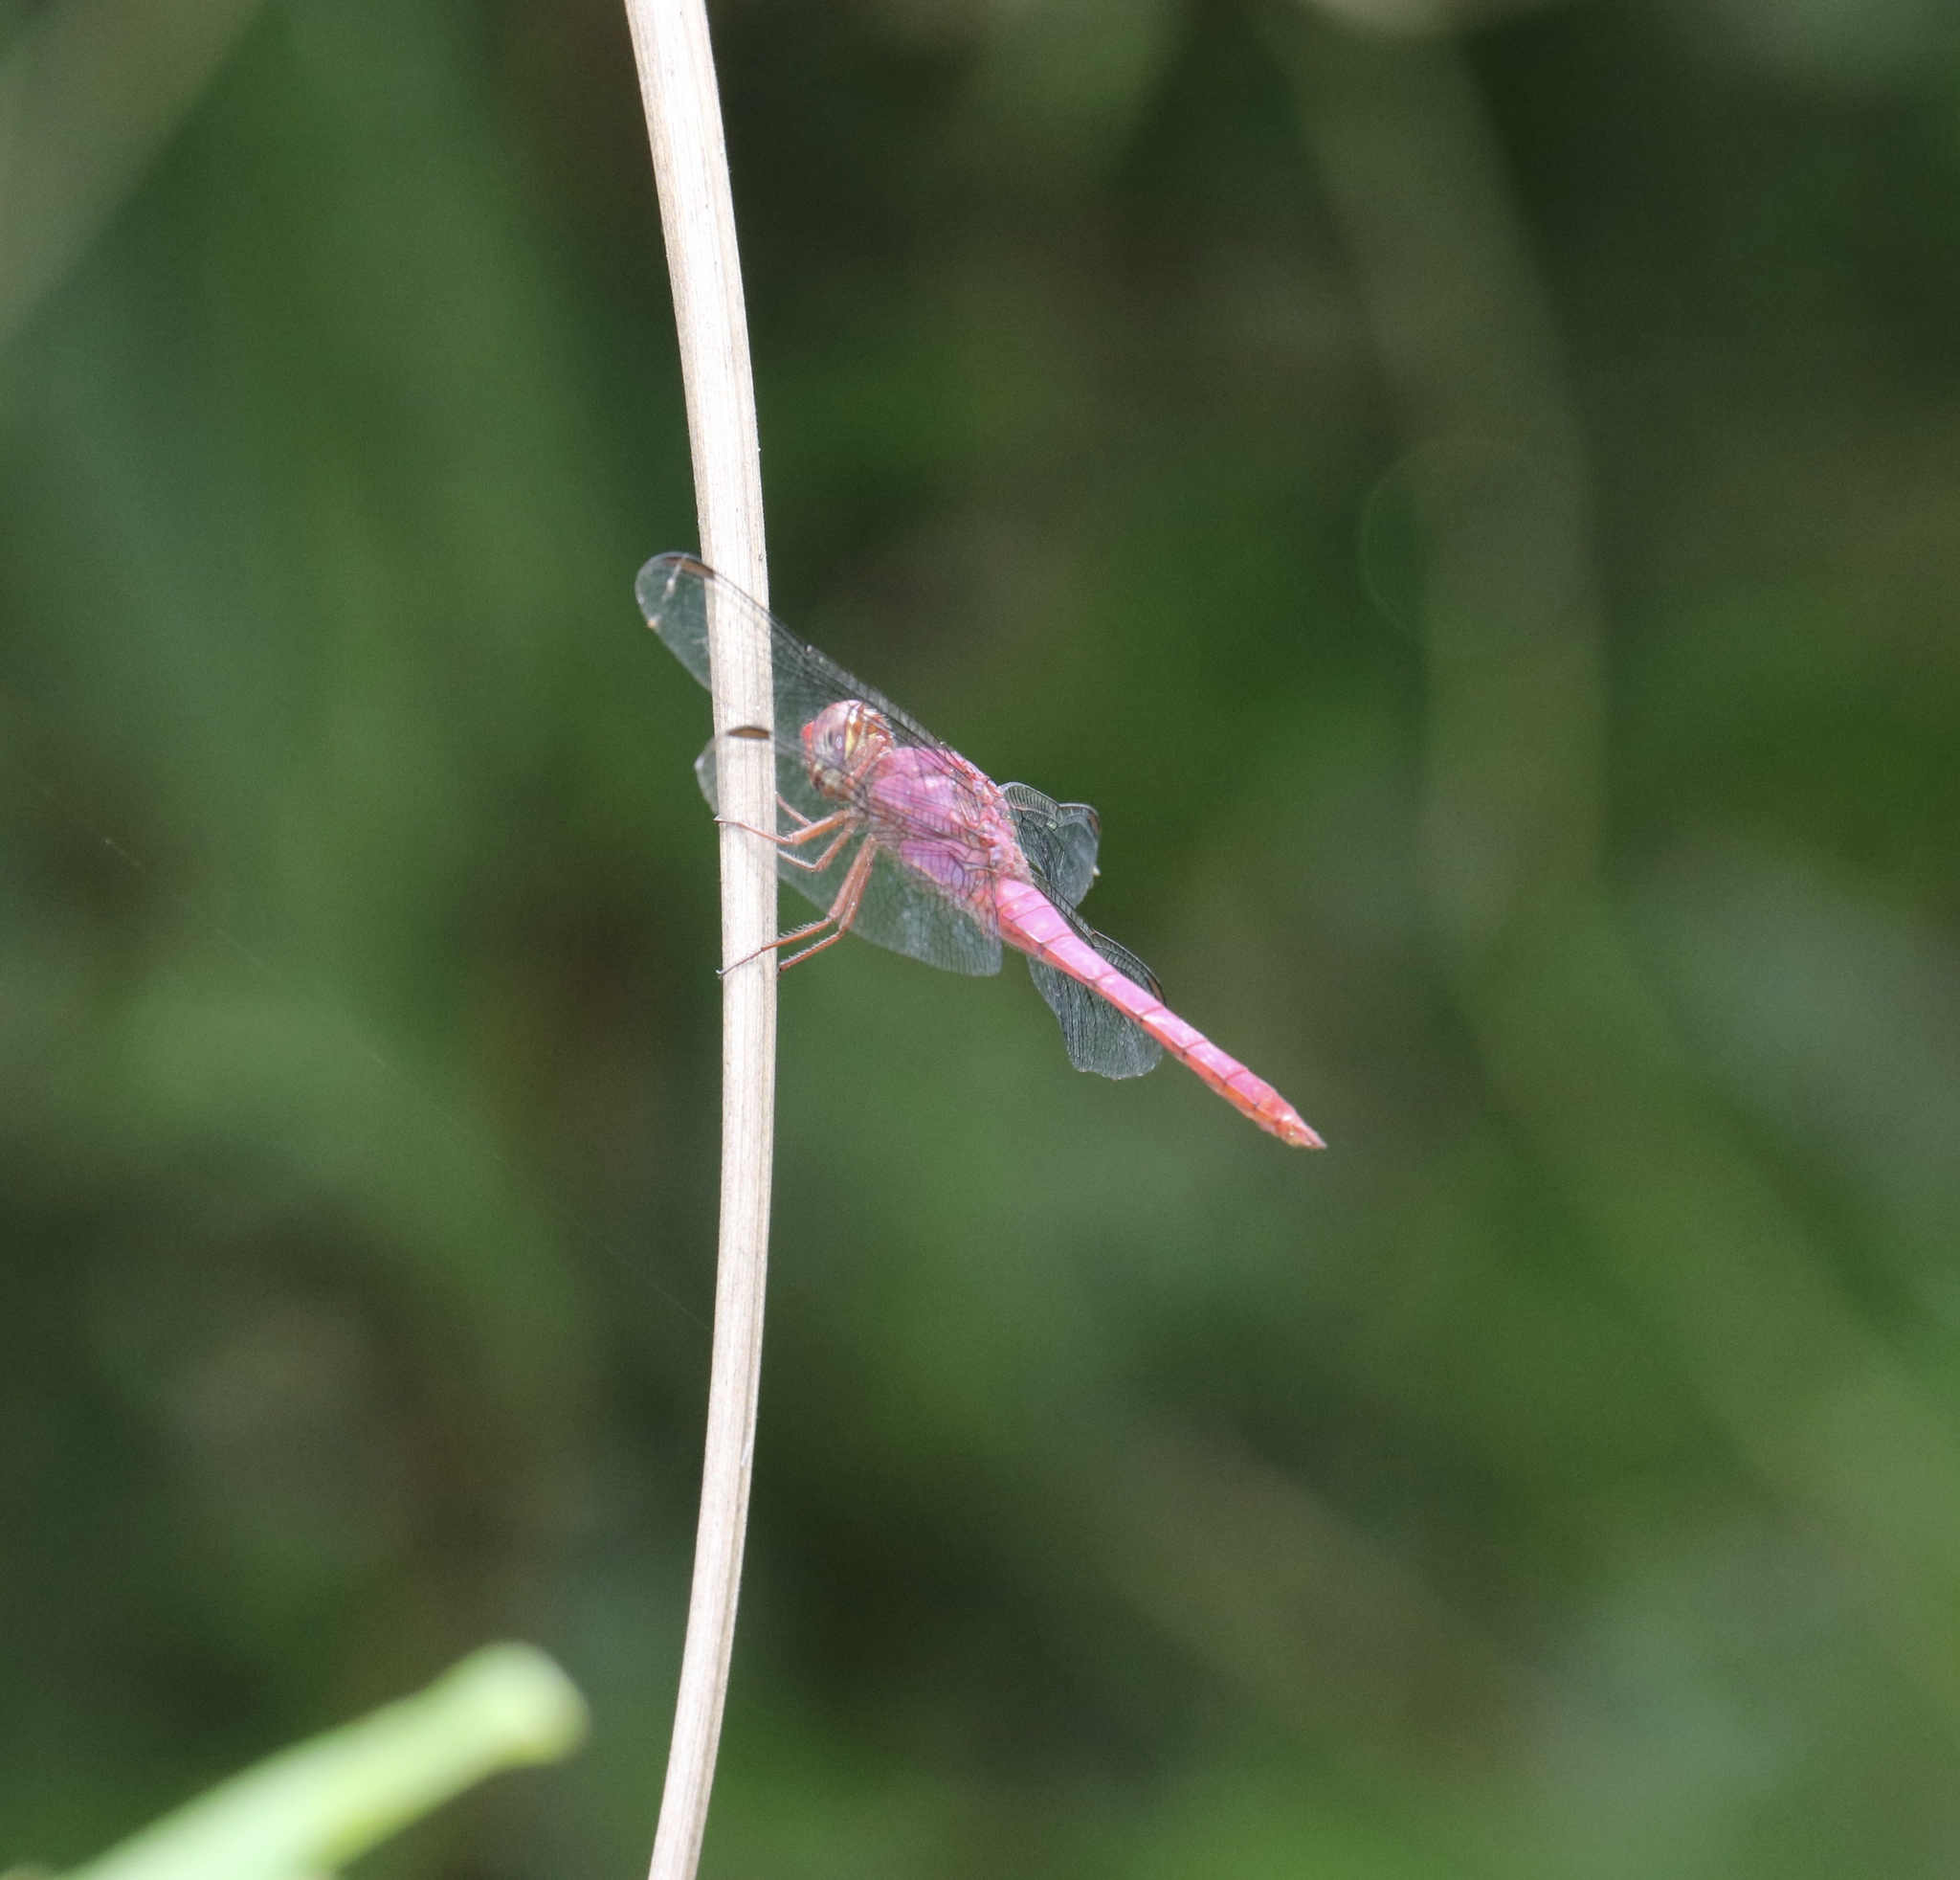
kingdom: Animalia
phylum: Arthropoda
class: Insecta
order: Odonata
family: Libellulidae
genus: Orthemis
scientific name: Orthemis discolor
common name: Carmine skimmer
